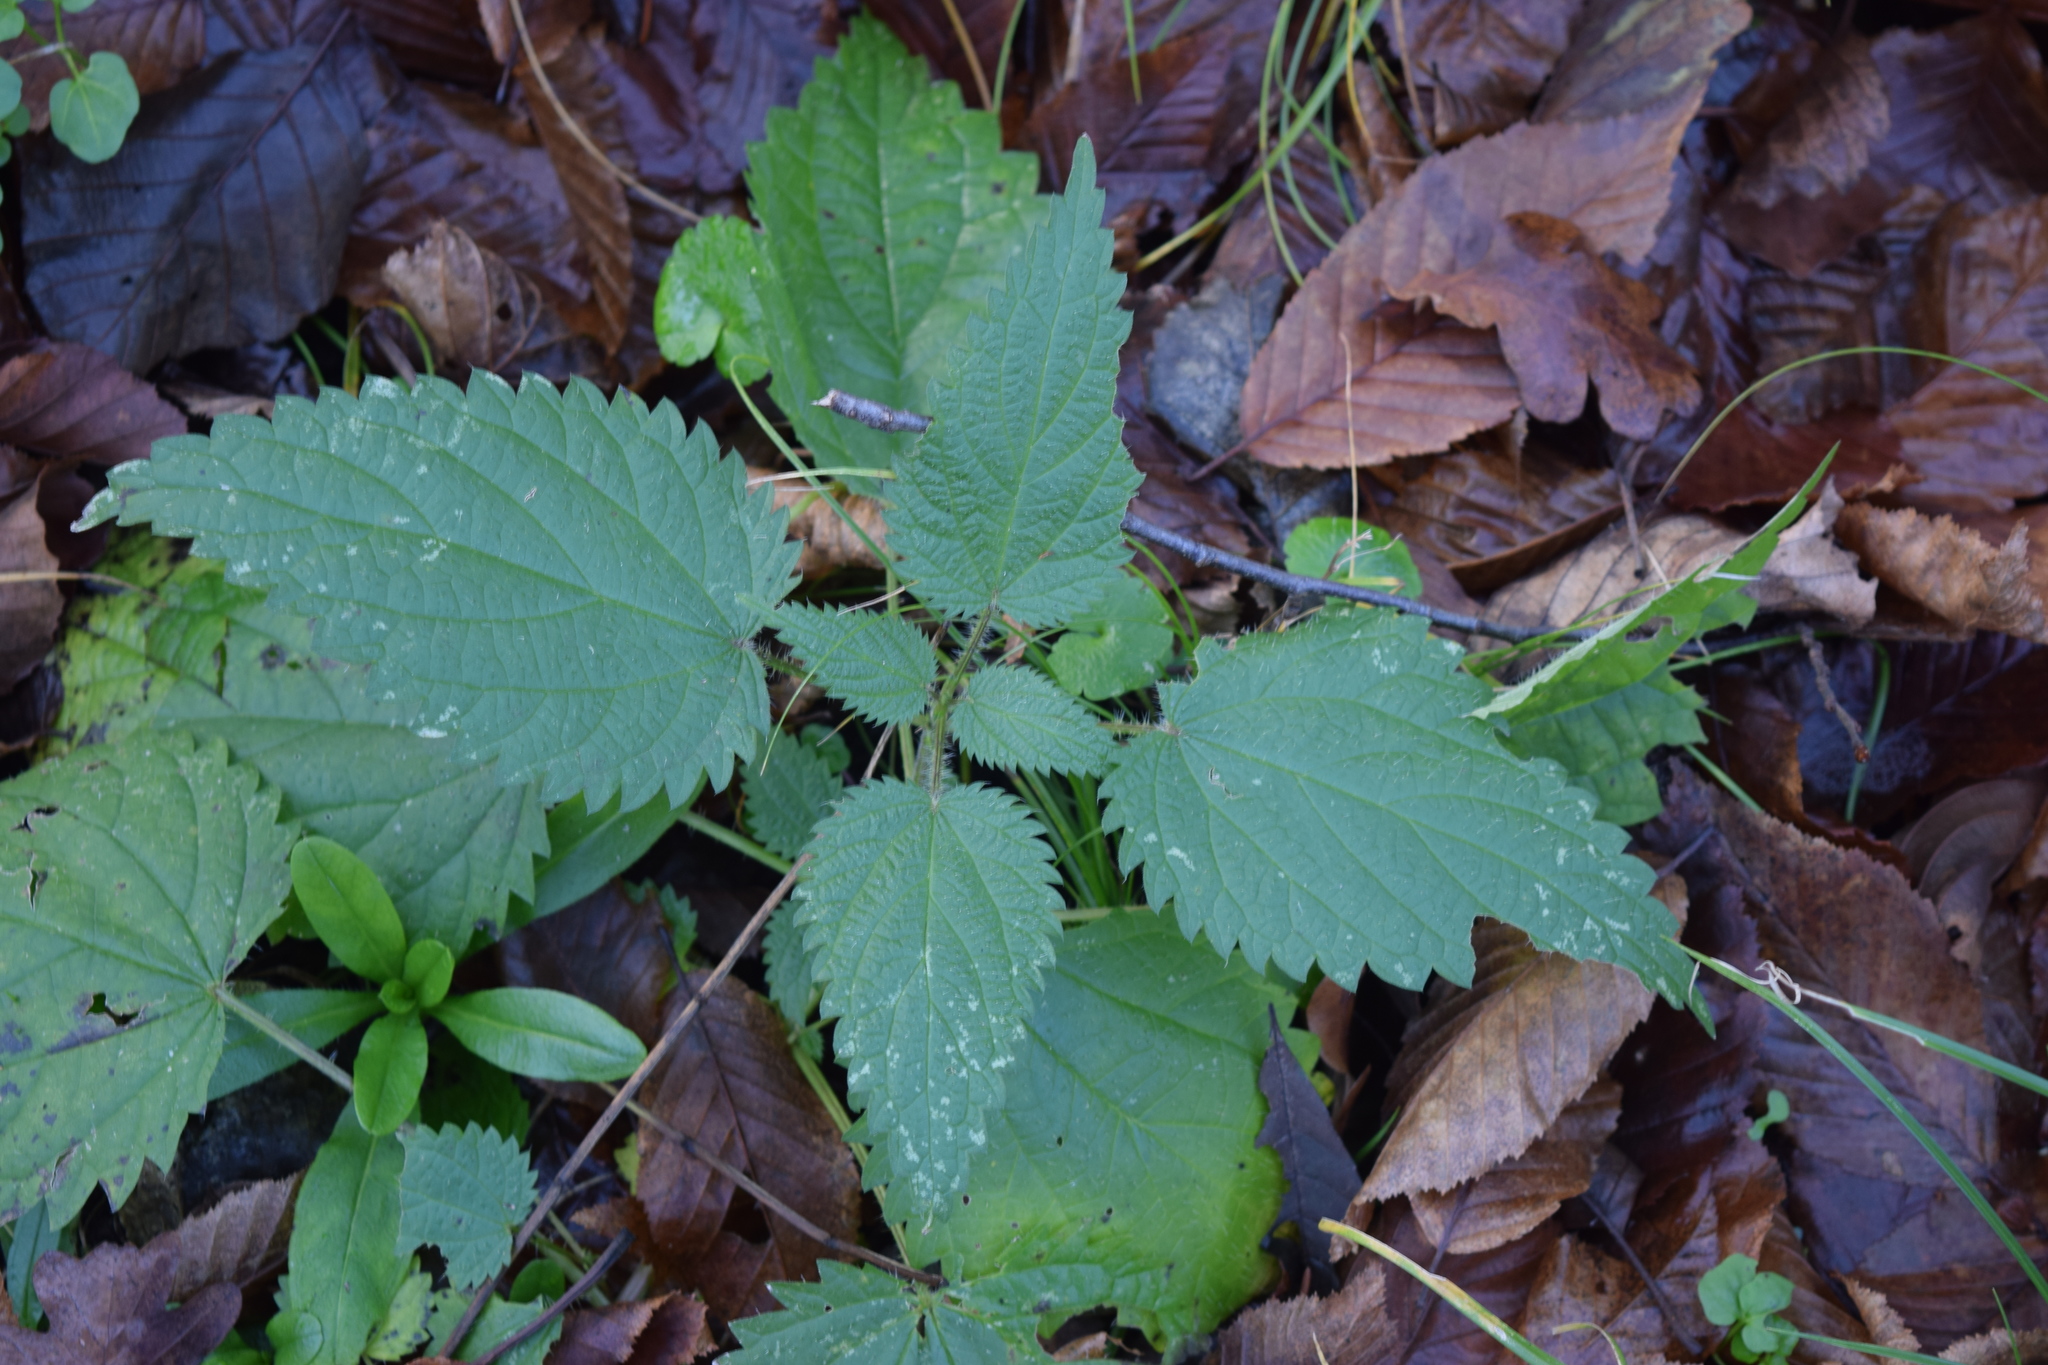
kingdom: Plantae
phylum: Tracheophyta
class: Magnoliopsida
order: Rosales
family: Urticaceae
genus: Urtica
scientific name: Urtica dioica
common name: Common nettle
